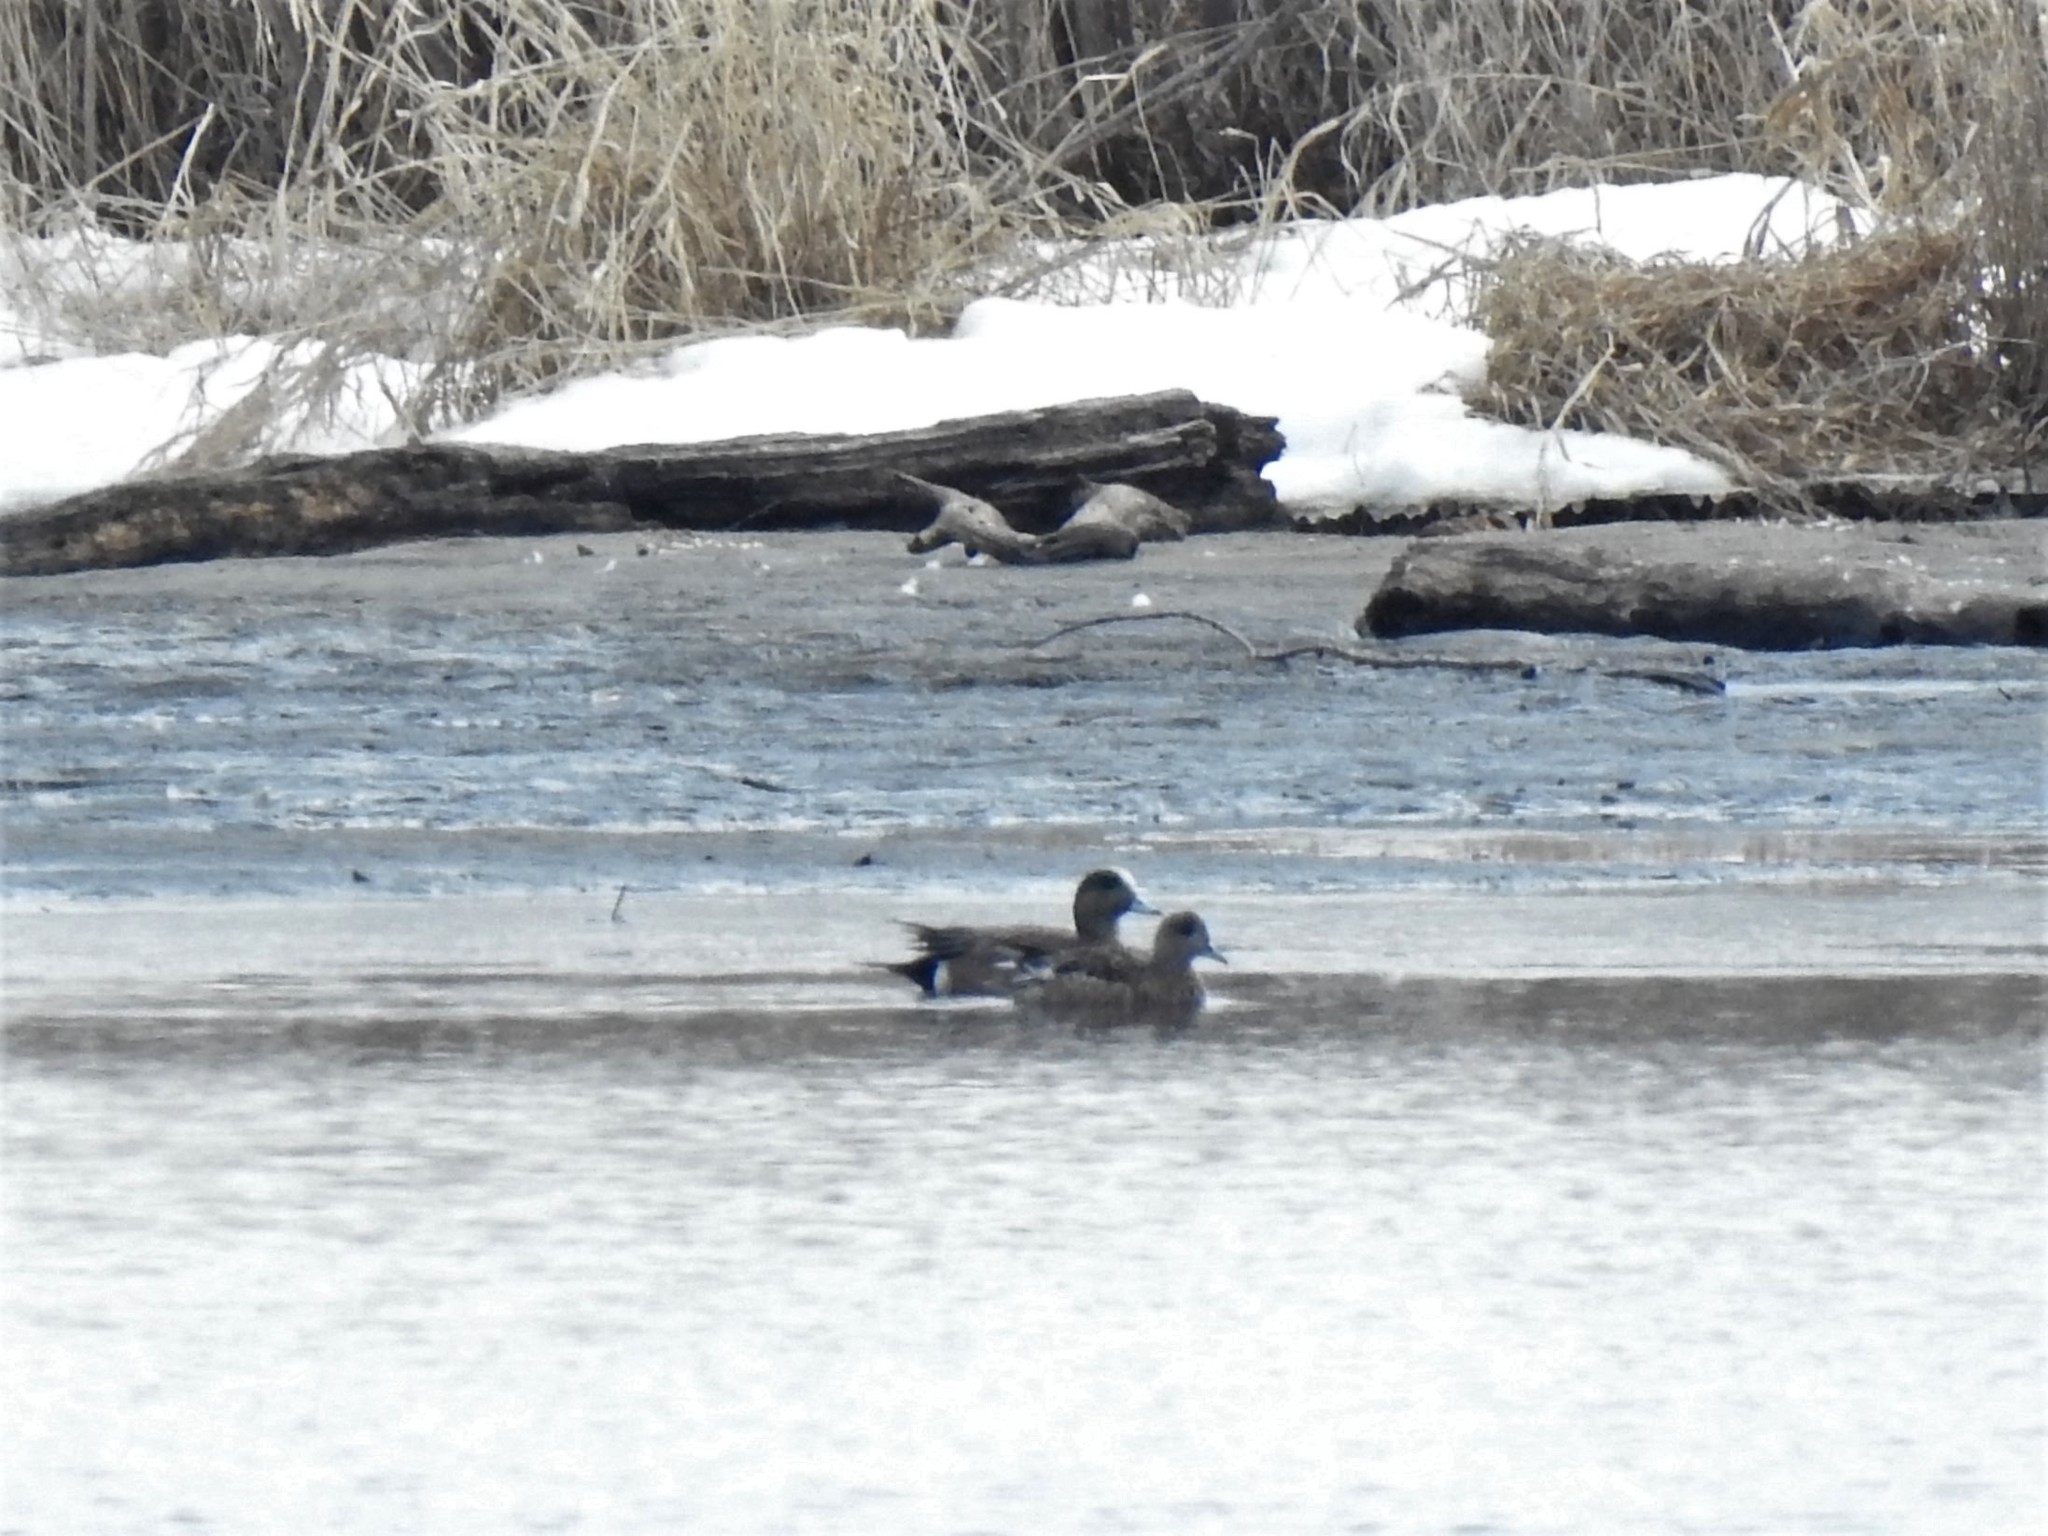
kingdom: Animalia
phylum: Chordata
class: Aves
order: Anseriformes
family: Anatidae
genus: Mareca
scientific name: Mareca americana
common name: American wigeon
